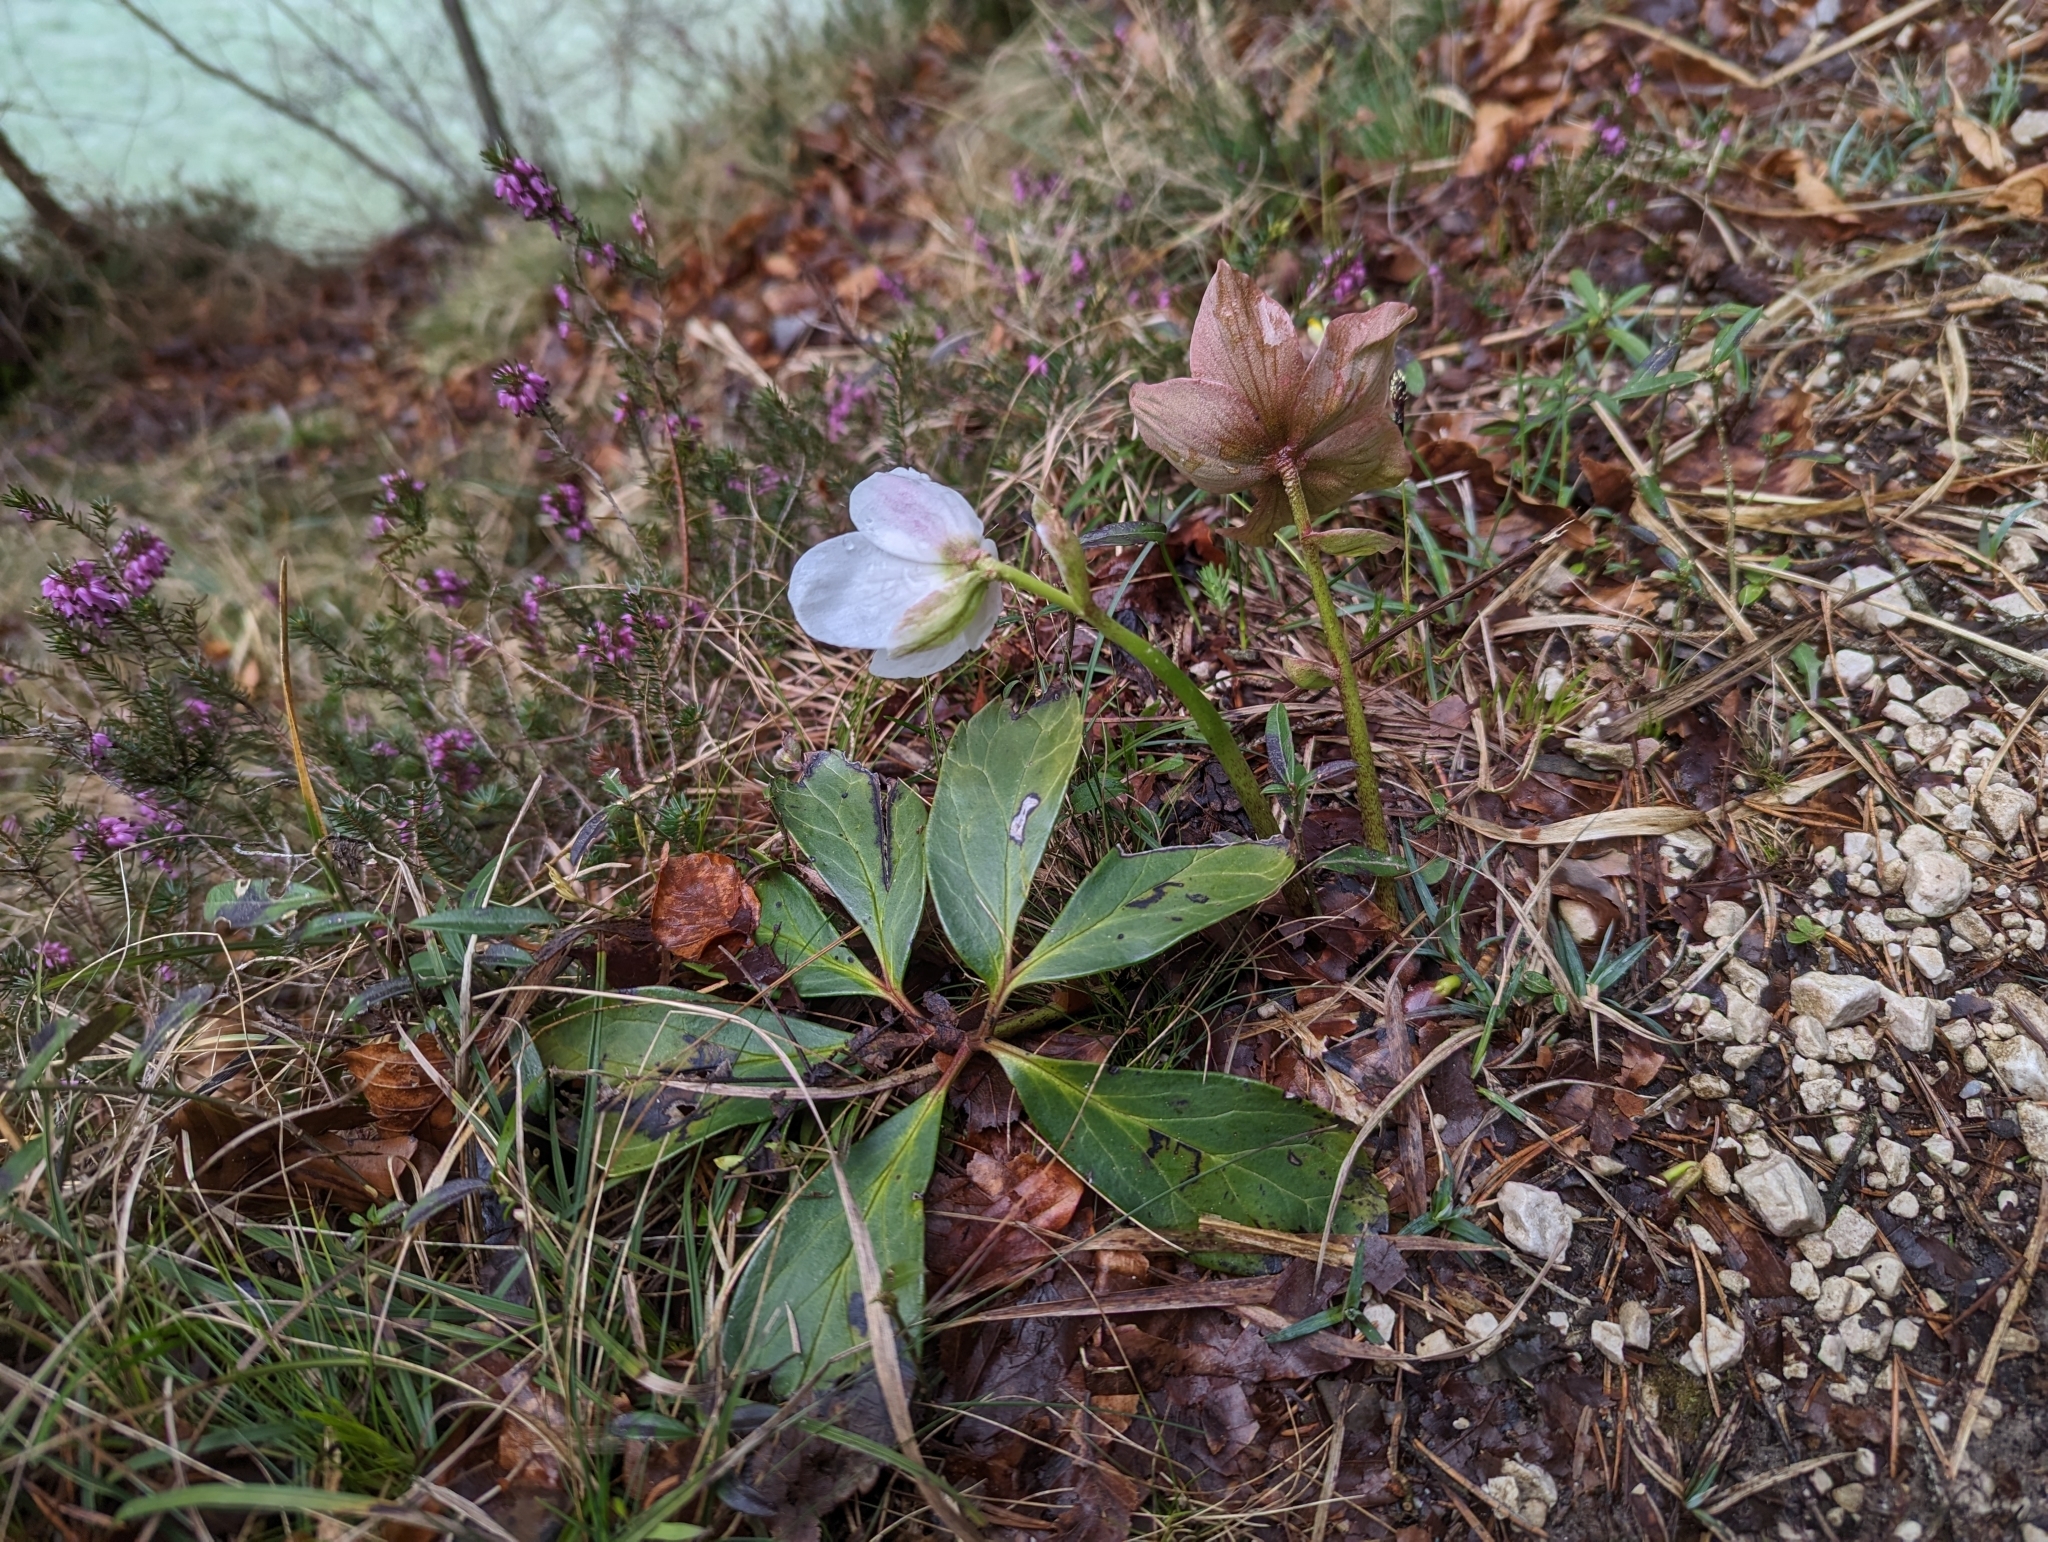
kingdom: Plantae
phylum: Tracheophyta
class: Magnoliopsida
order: Ranunculales
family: Ranunculaceae
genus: Helleborus
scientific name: Helleborus niger
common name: Black hellebore
